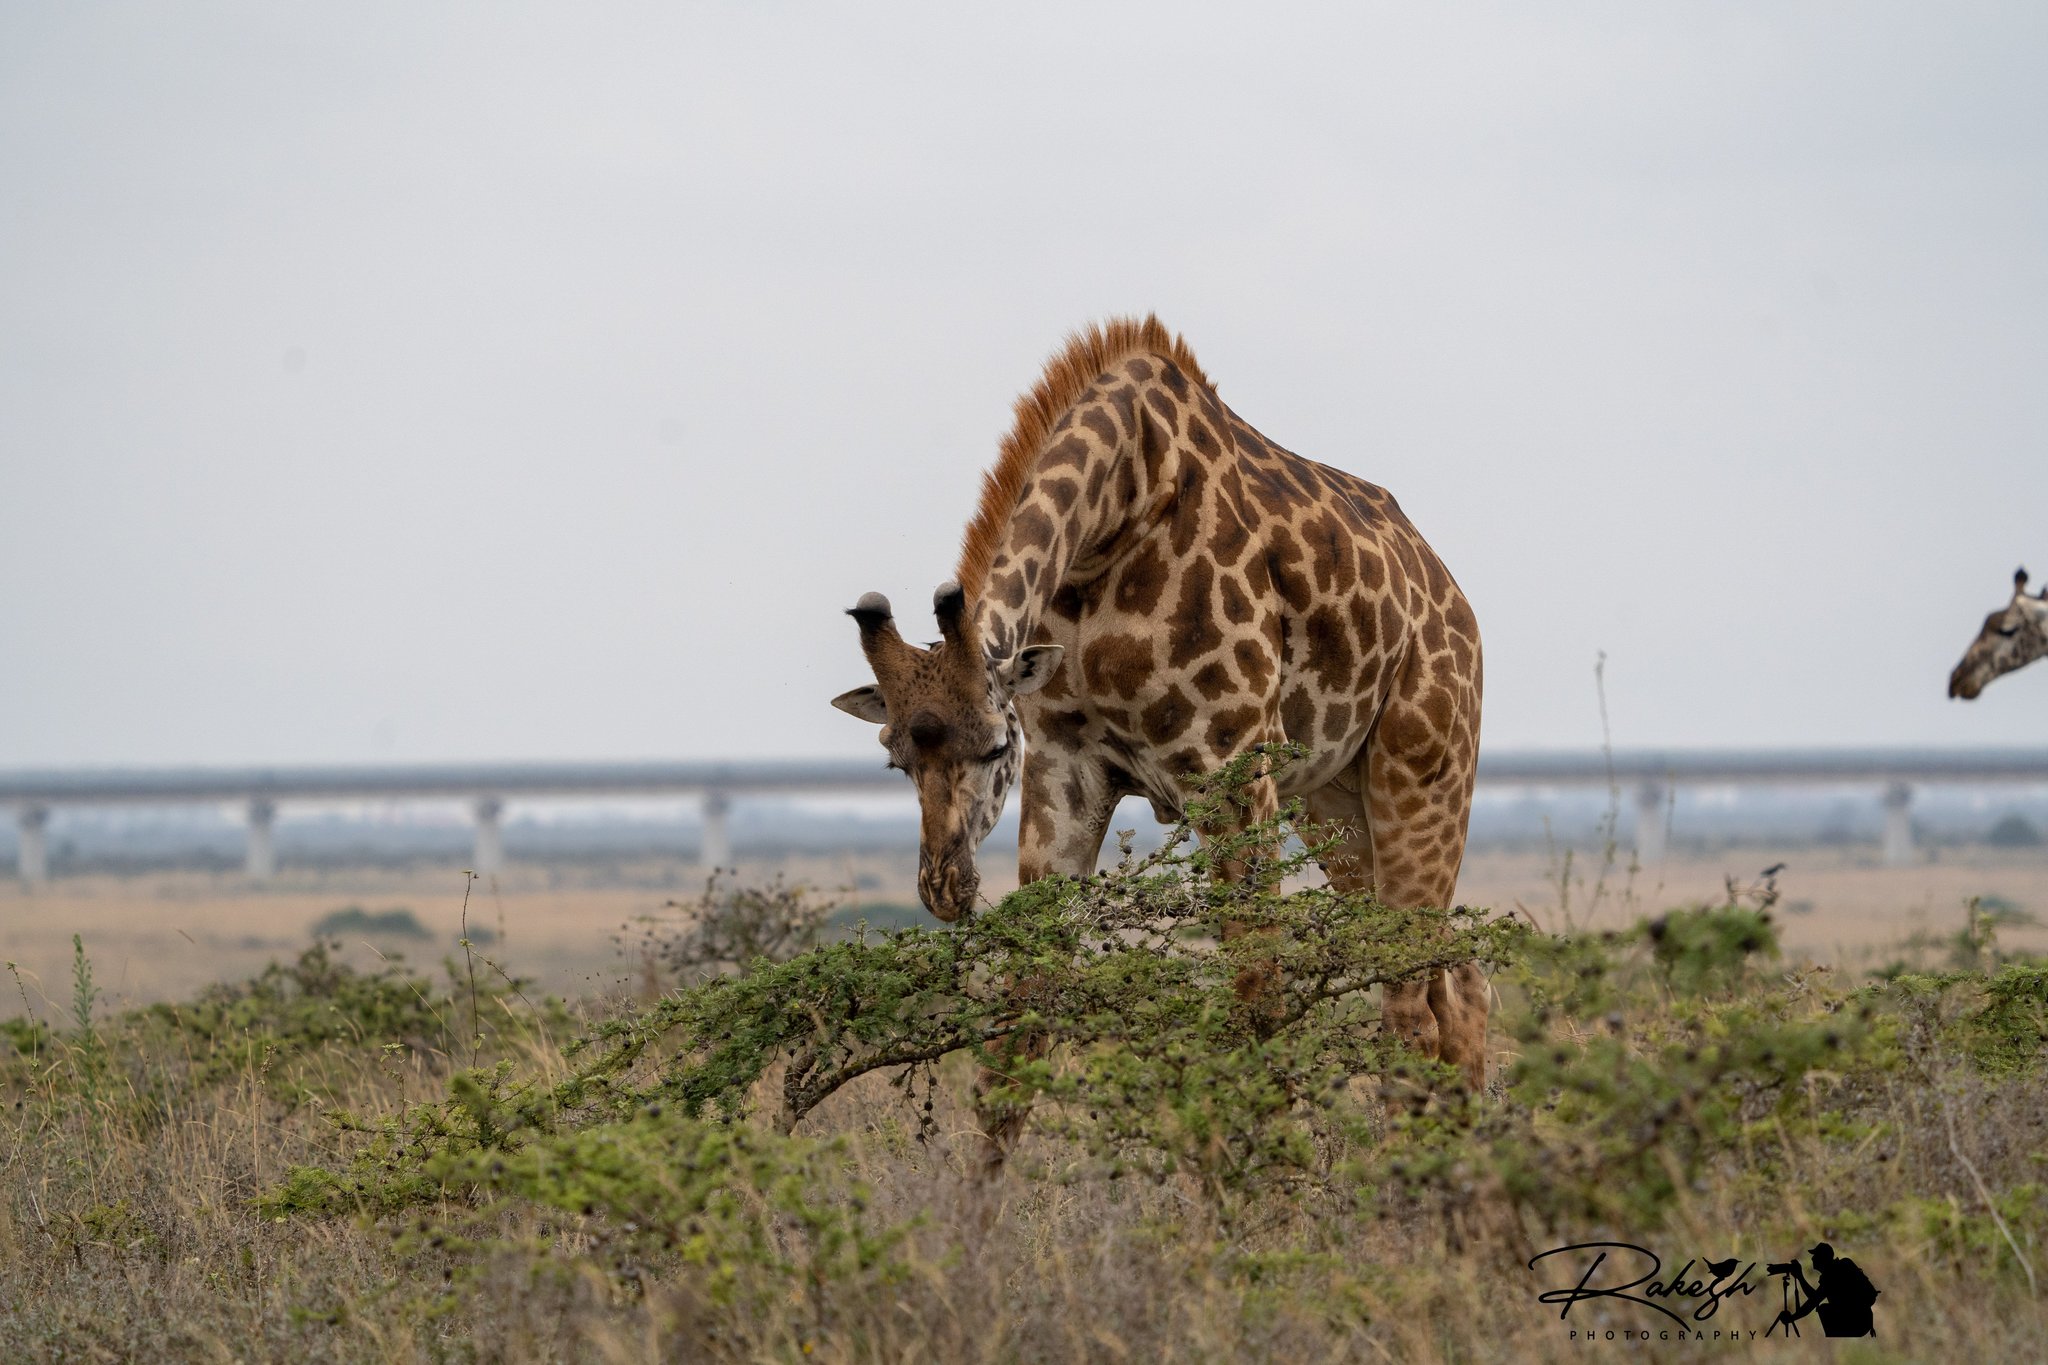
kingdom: Animalia
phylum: Chordata
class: Mammalia
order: Artiodactyla
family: Giraffidae
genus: Giraffa
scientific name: Giraffa tippelskirchi
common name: Masai giraffe
